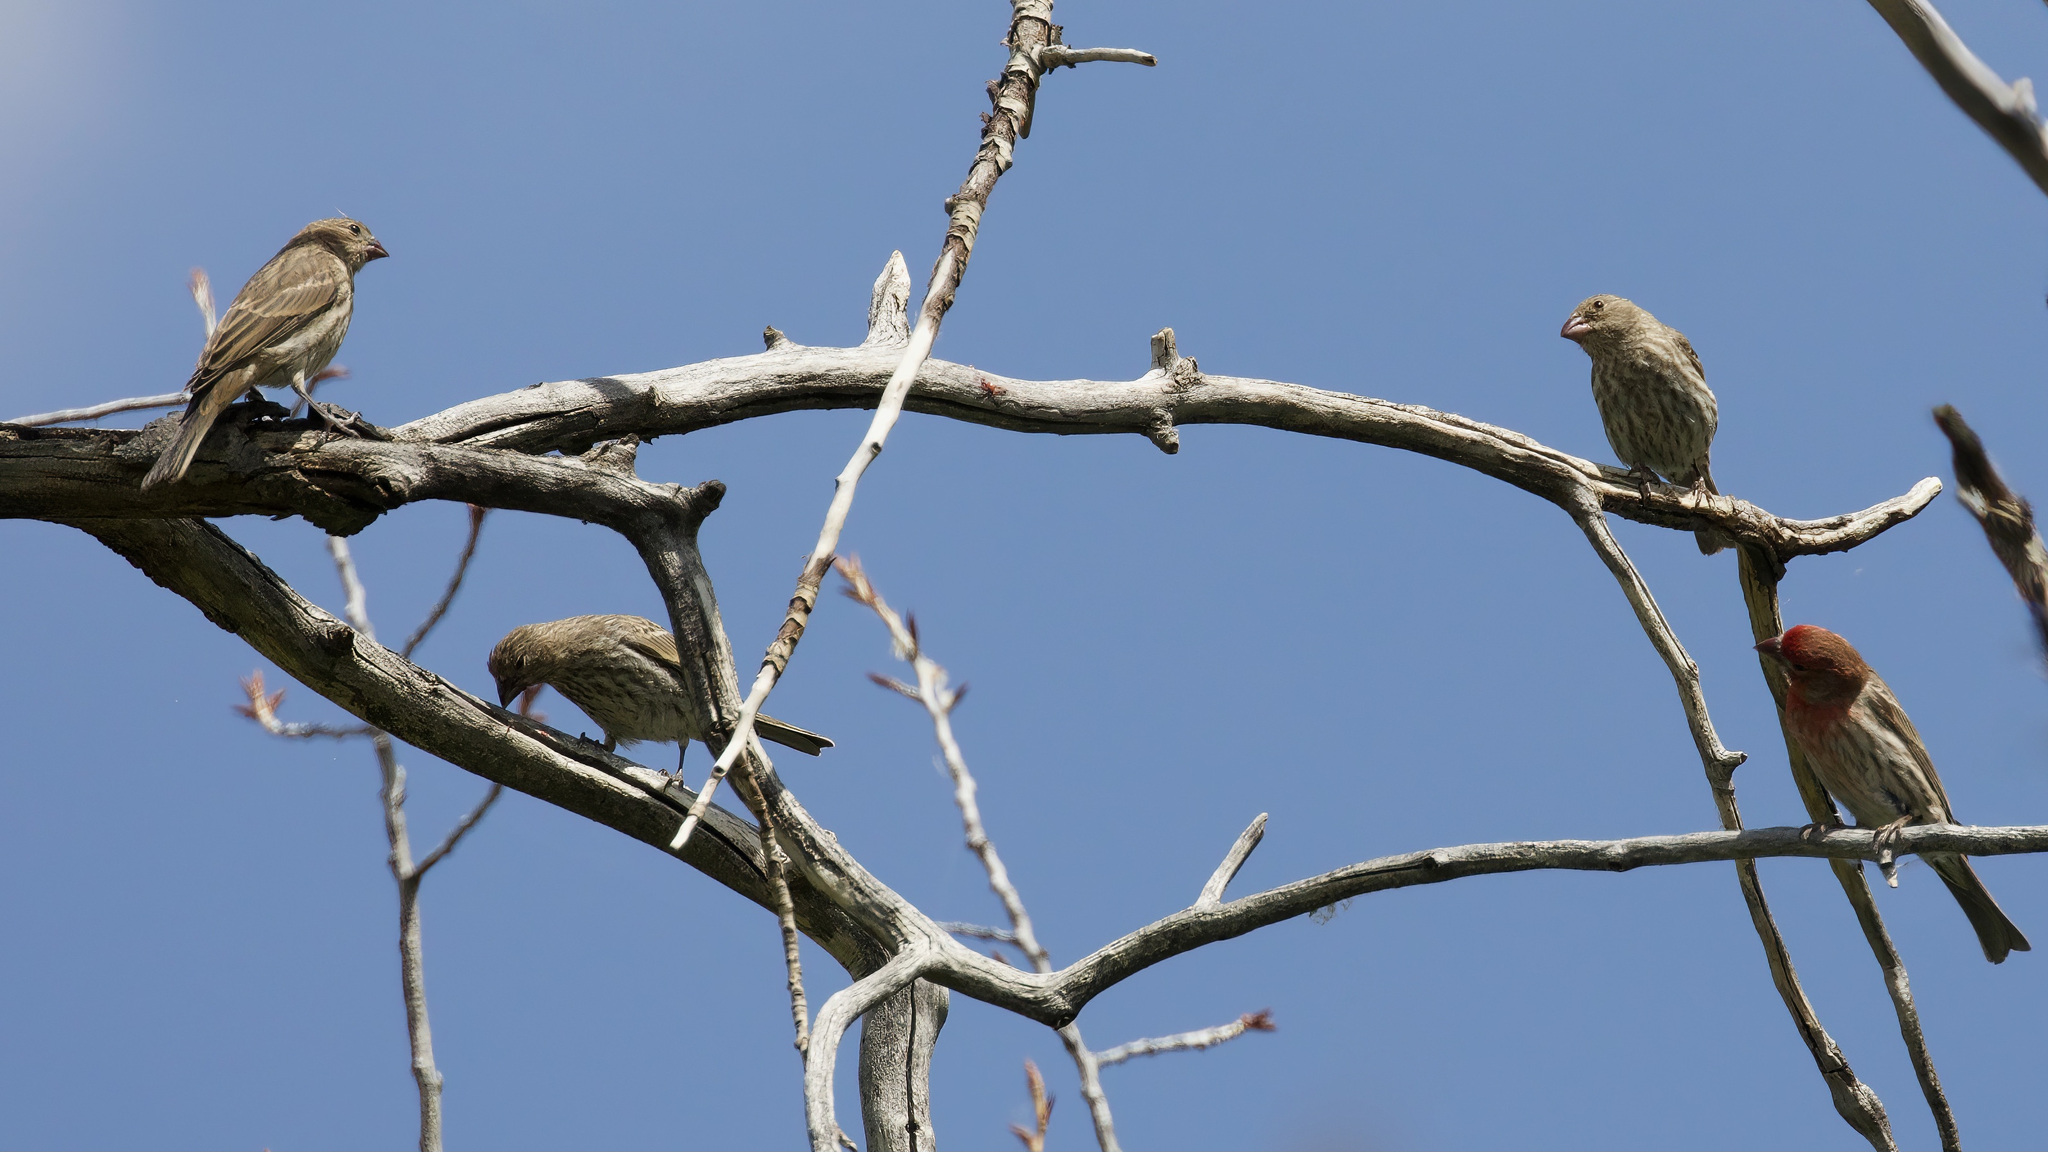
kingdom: Animalia
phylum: Chordata
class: Aves
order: Passeriformes
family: Fringillidae
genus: Haemorhous
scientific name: Haemorhous mexicanus
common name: House finch
